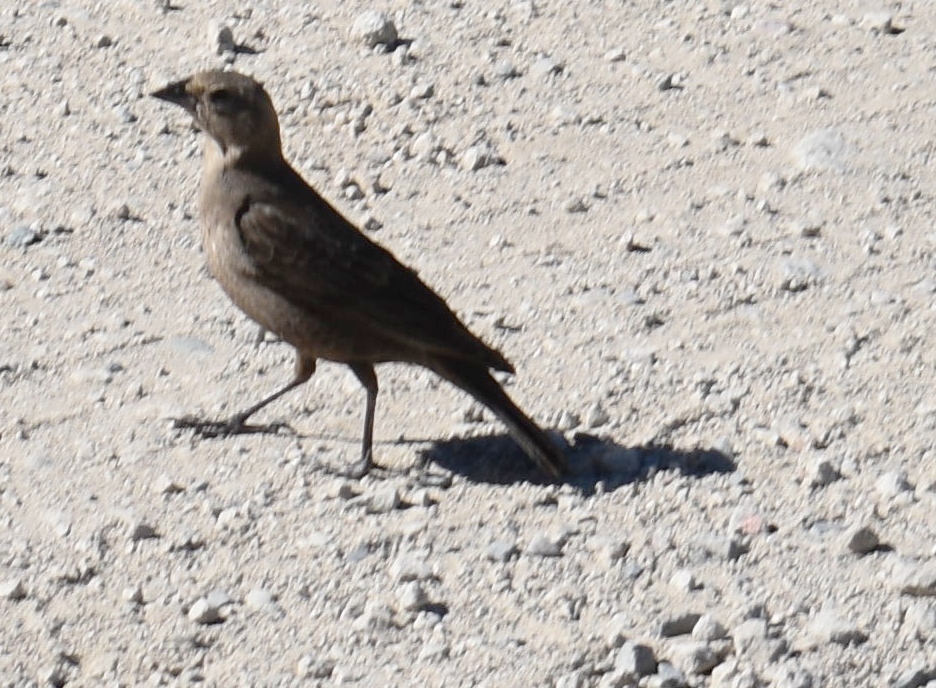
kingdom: Animalia
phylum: Chordata
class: Aves
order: Passeriformes
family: Icteridae
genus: Molothrus
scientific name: Molothrus ater
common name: Brown-headed cowbird
